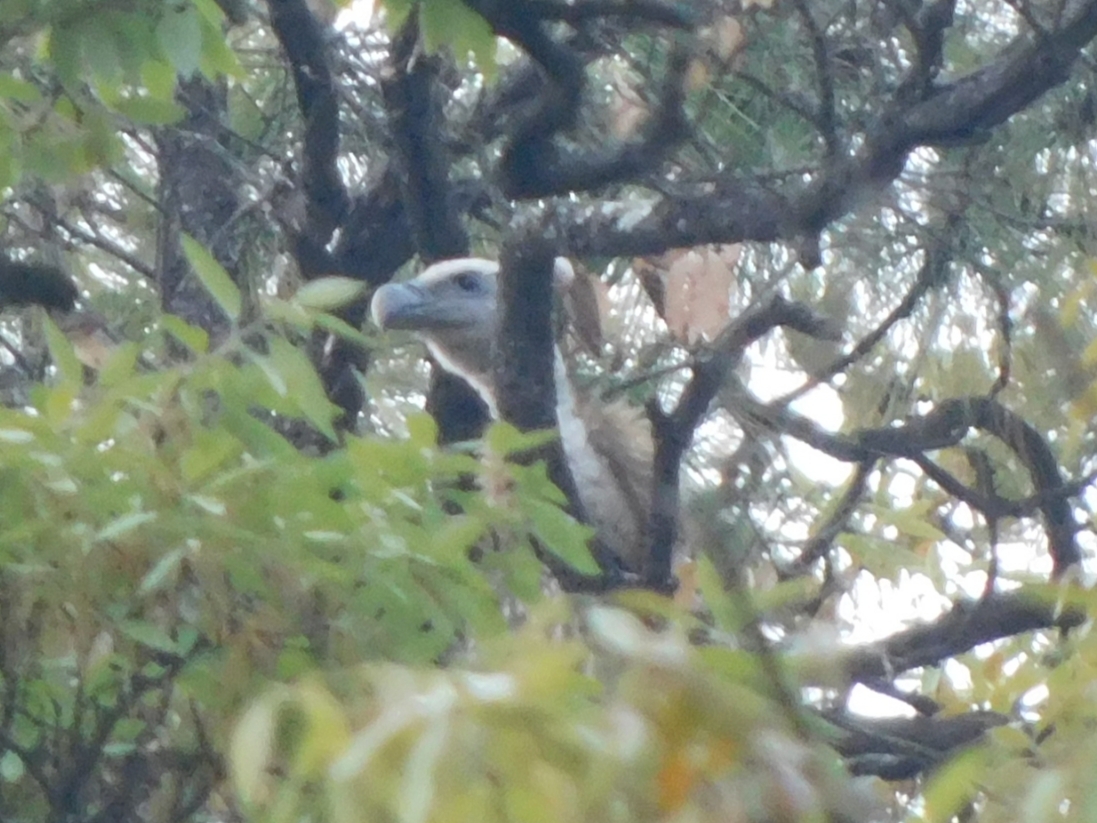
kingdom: Animalia
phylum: Chordata
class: Aves
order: Accipitriformes
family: Accipitridae
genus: Gyps
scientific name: Gyps himalayensis
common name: Himalayan griffon
